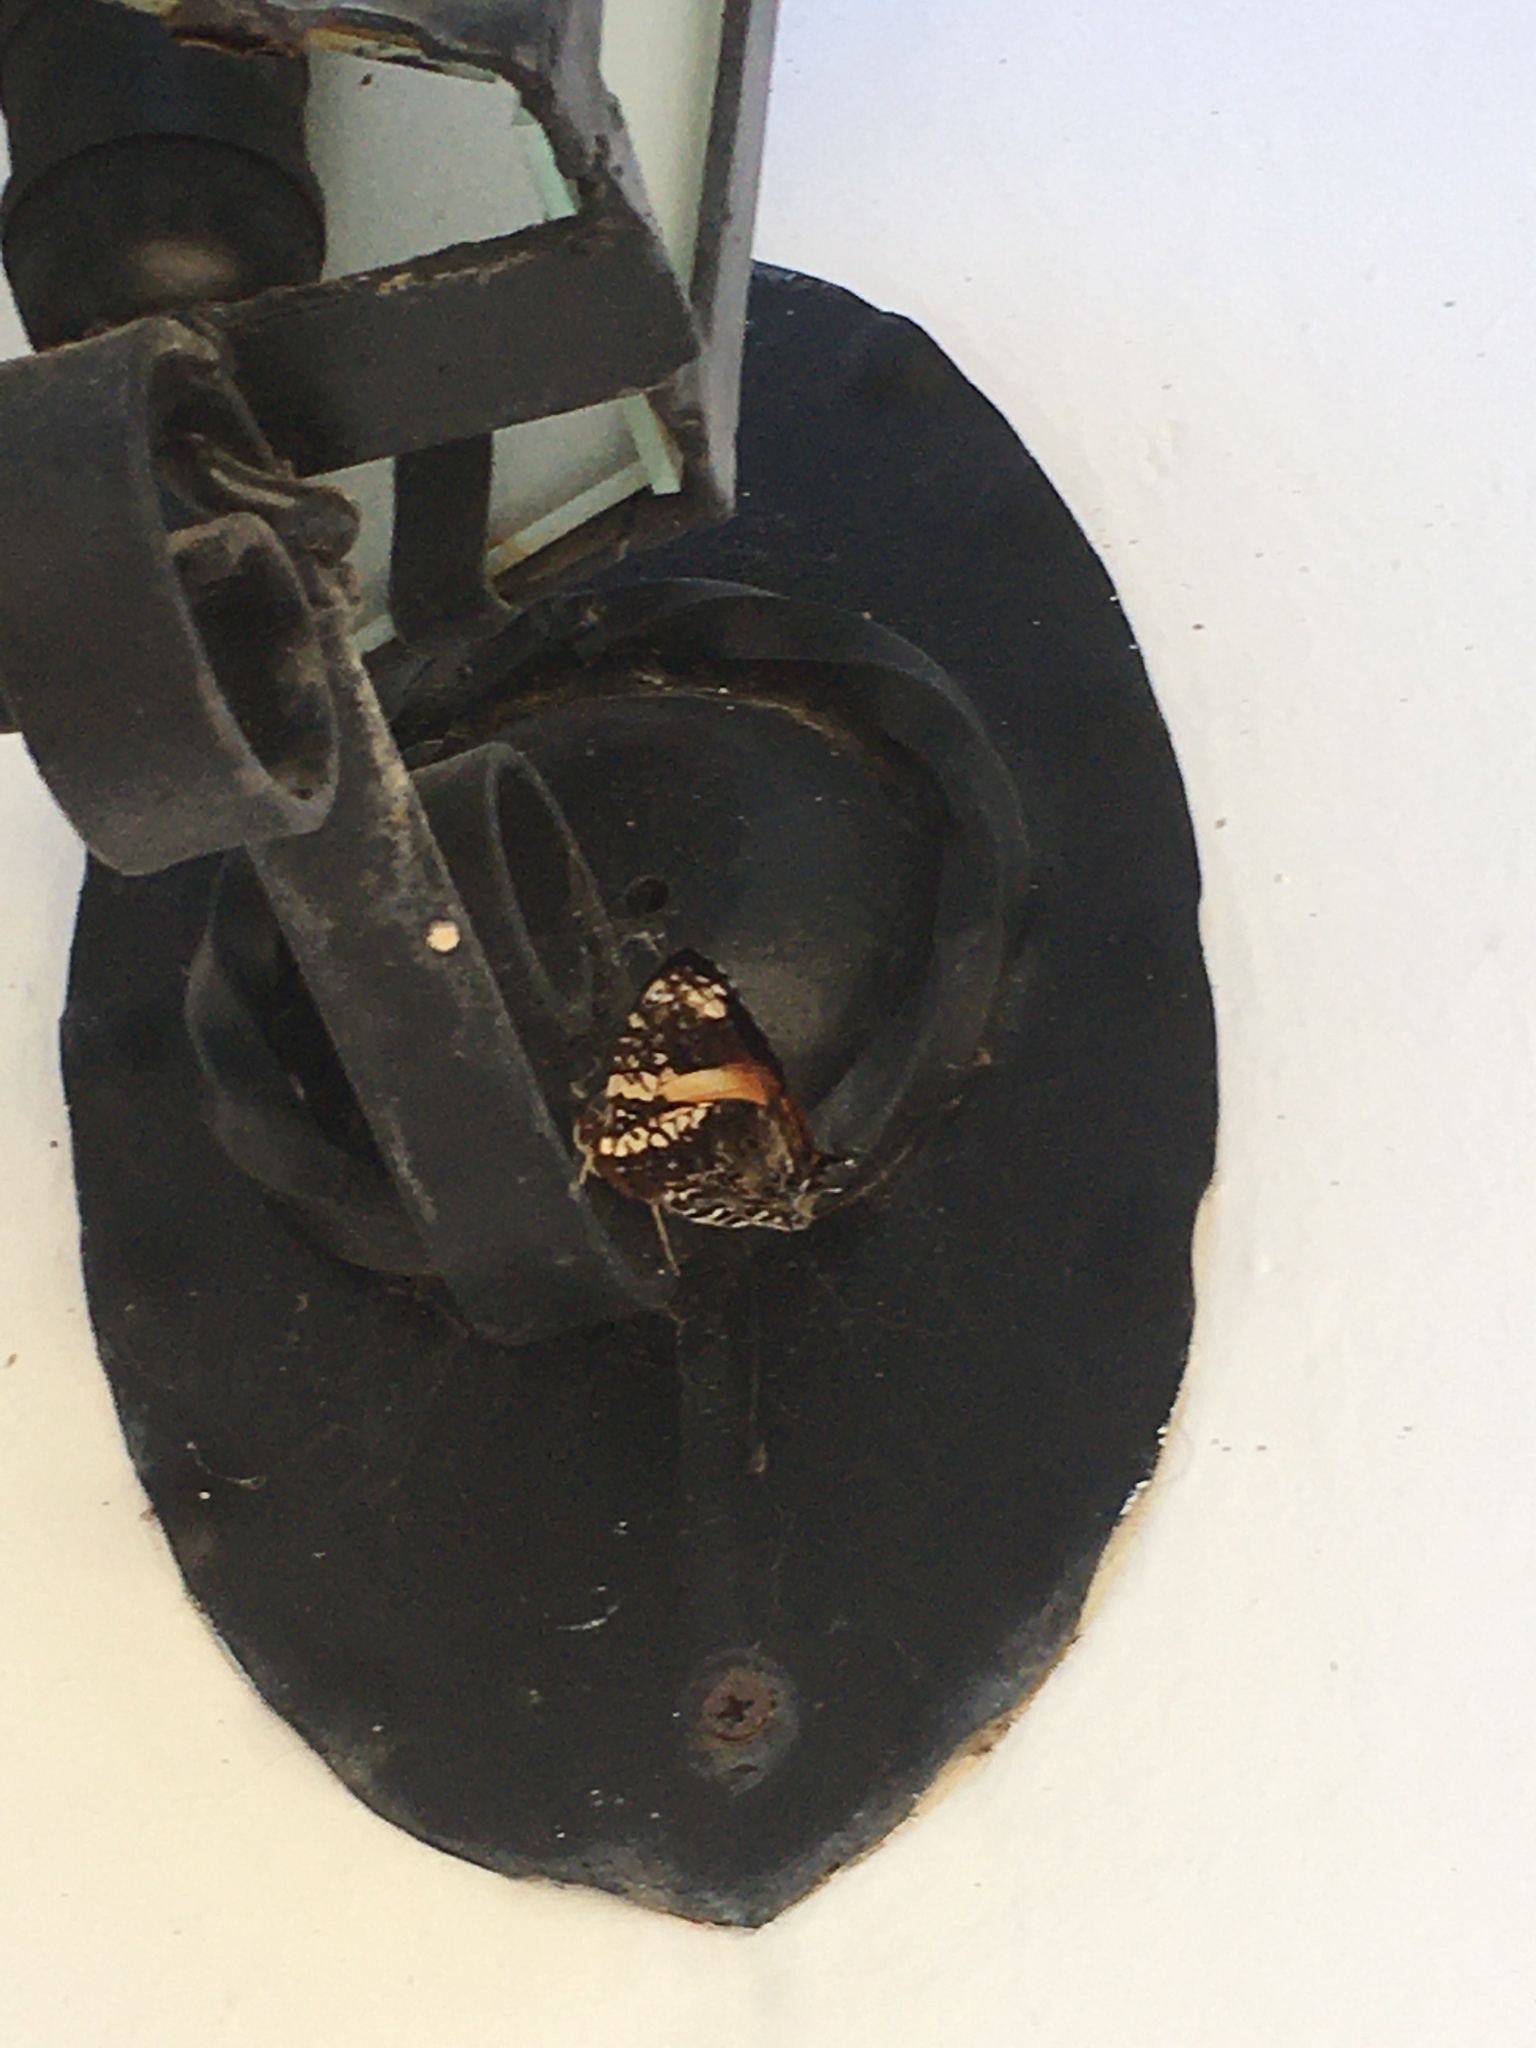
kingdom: Animalia
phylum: Arthropoda
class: Insecta
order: Lepidoptera
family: Nymphalidae
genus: Hypanartia
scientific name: Hypanartia godmanii
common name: Godman's mapwing
